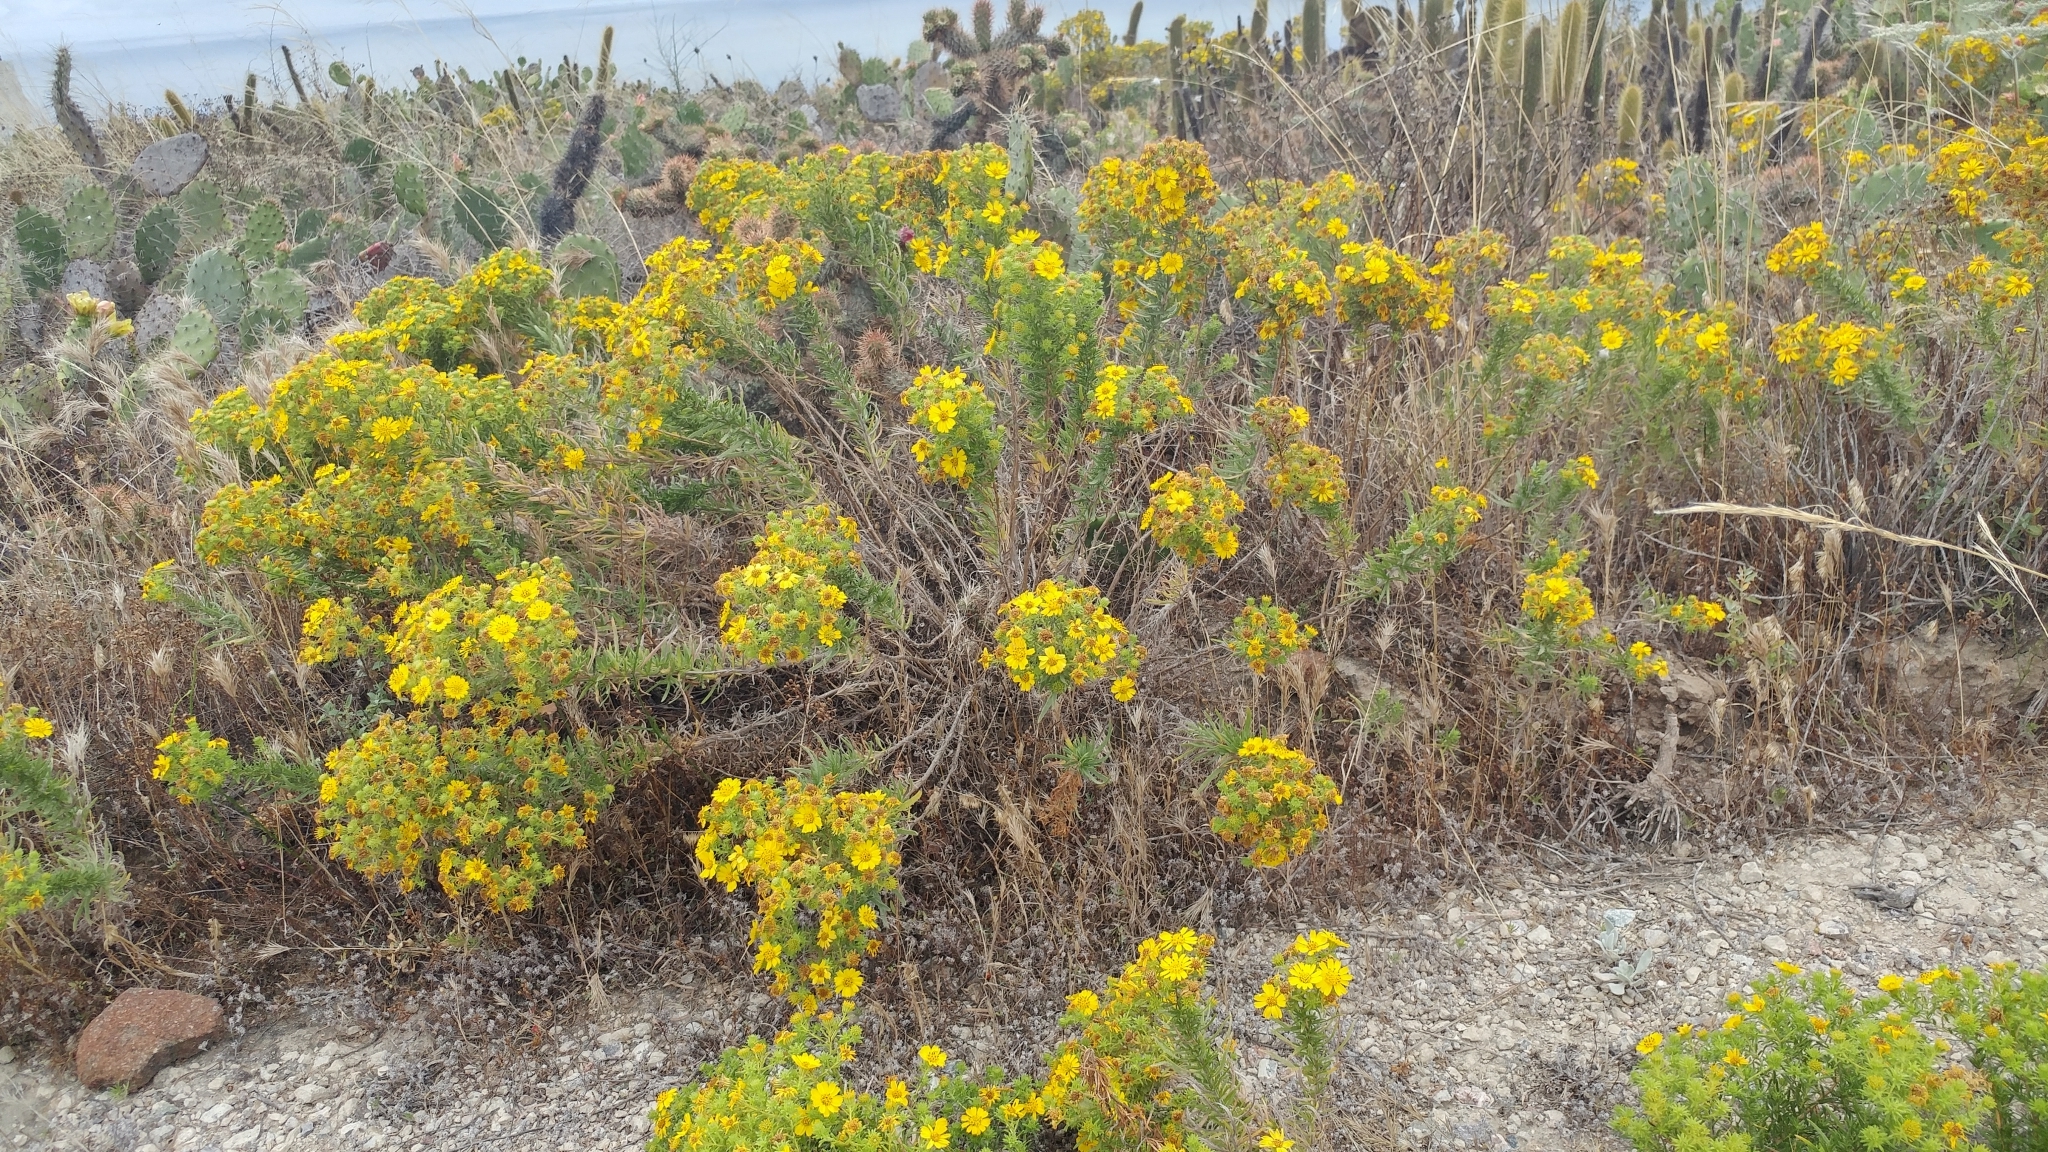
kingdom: Plantae
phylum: Tracheophyta
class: Magnoliopsida
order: Asterales
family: Asteraceae
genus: Deinandra
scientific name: Deinandra clementina
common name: Island tarplant
